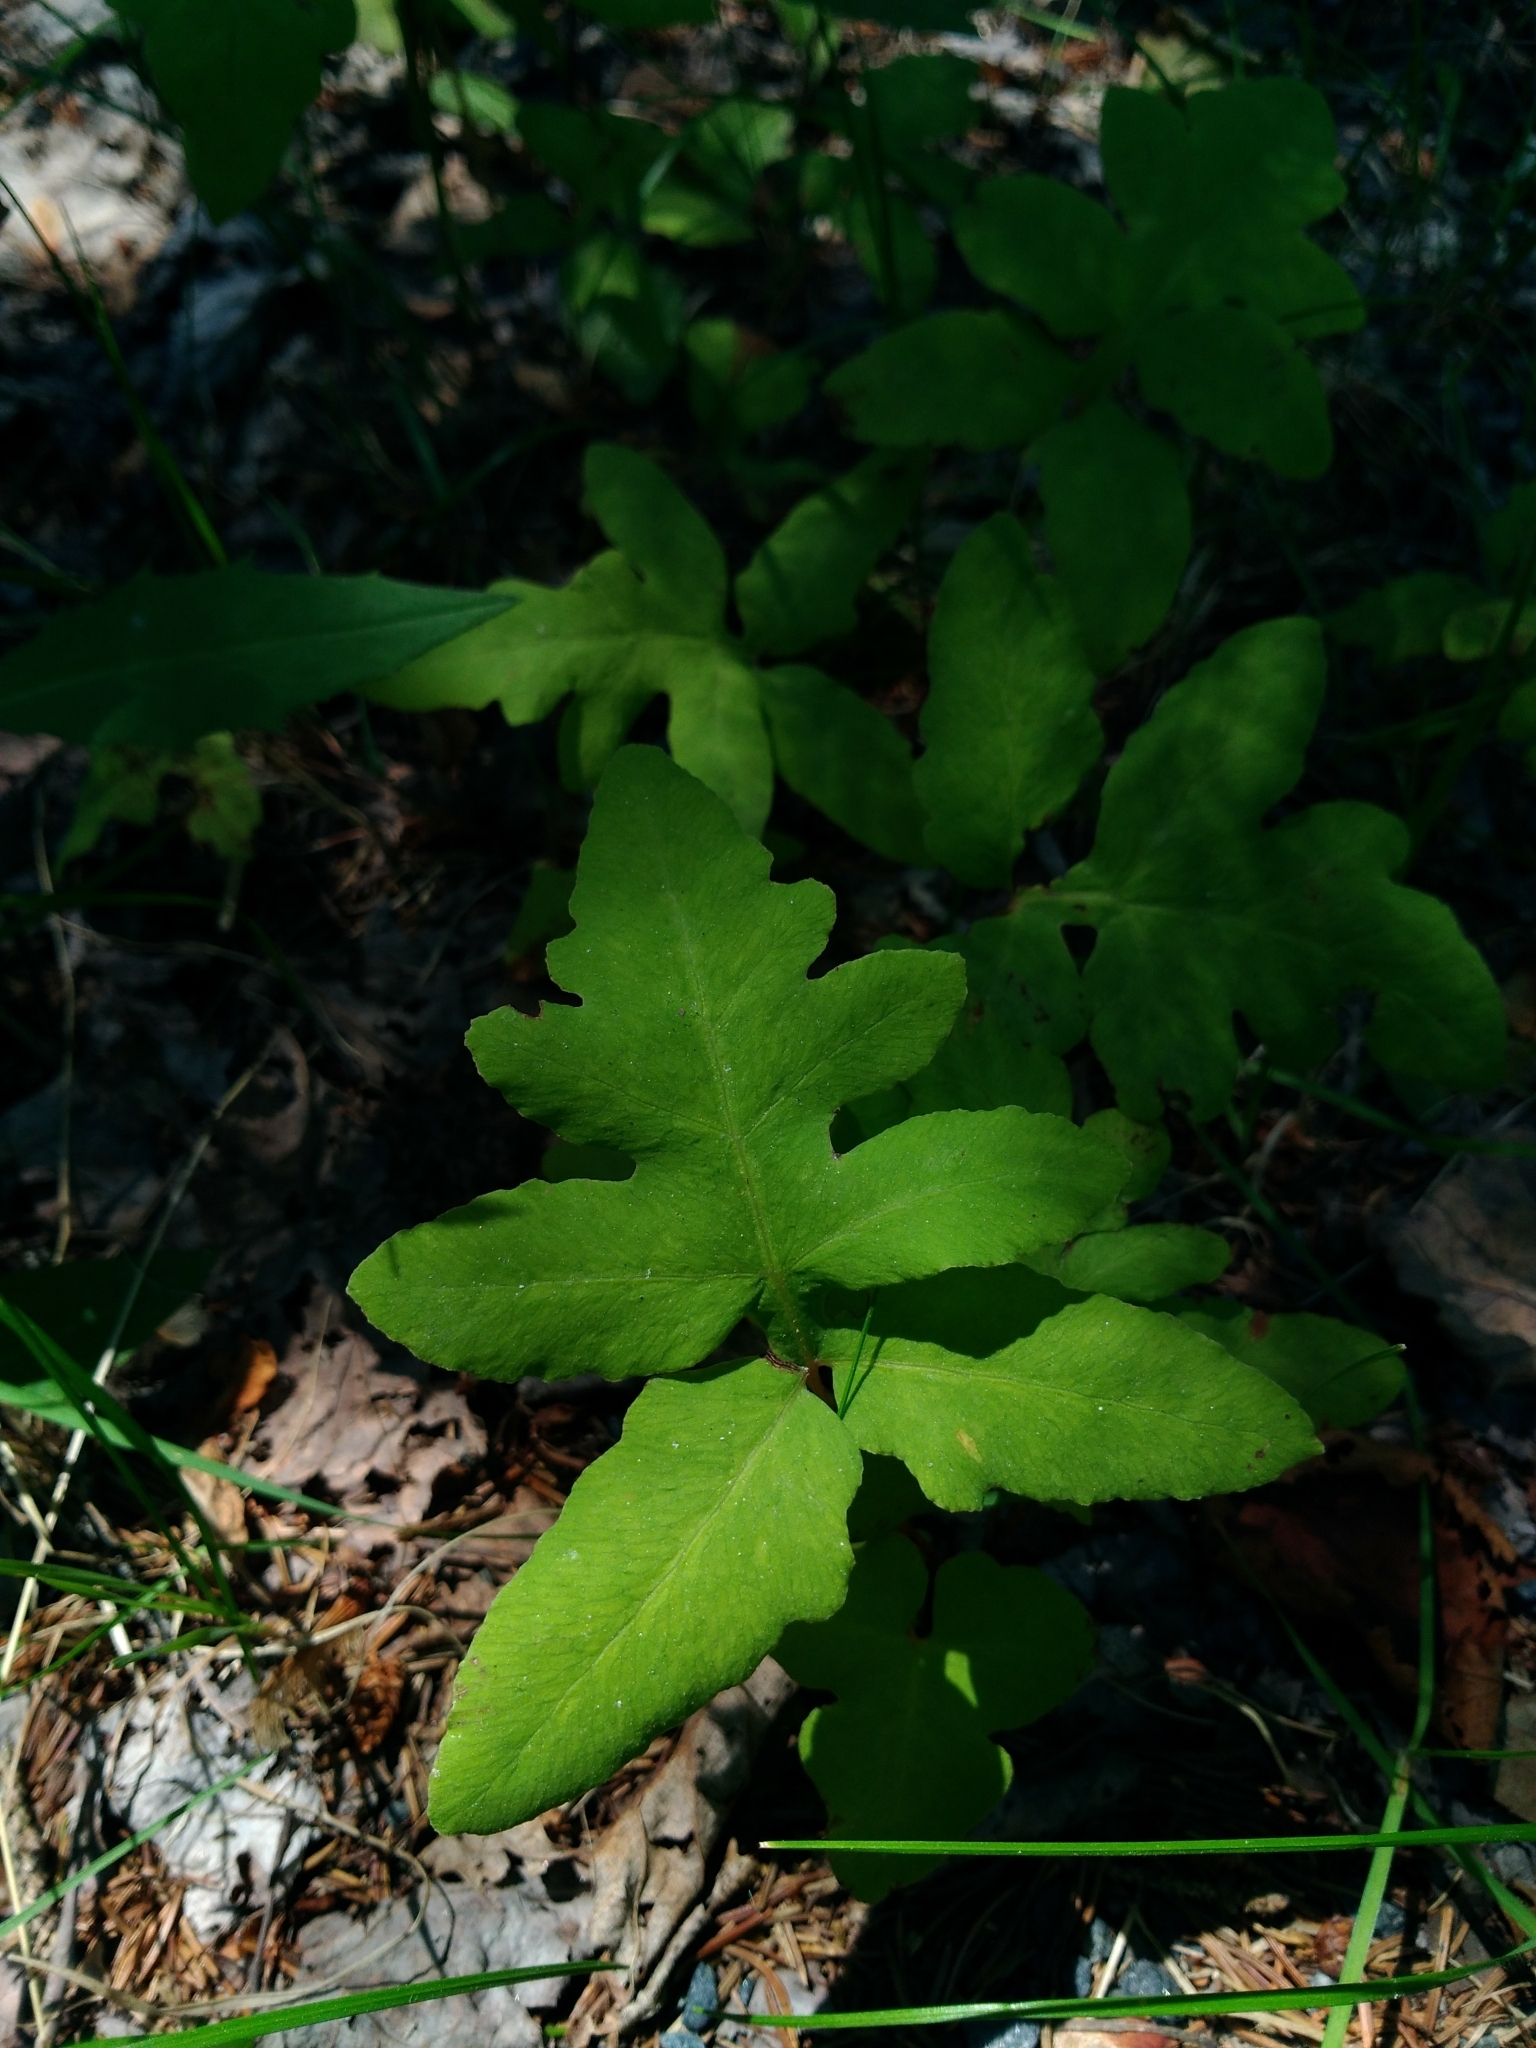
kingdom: Plantae
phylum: Tracheophyta
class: Polypodiopsida
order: Polypodiales
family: Onocleaceae
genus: Onoclea
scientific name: Onoclea sensibilis
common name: Sensitive fern
